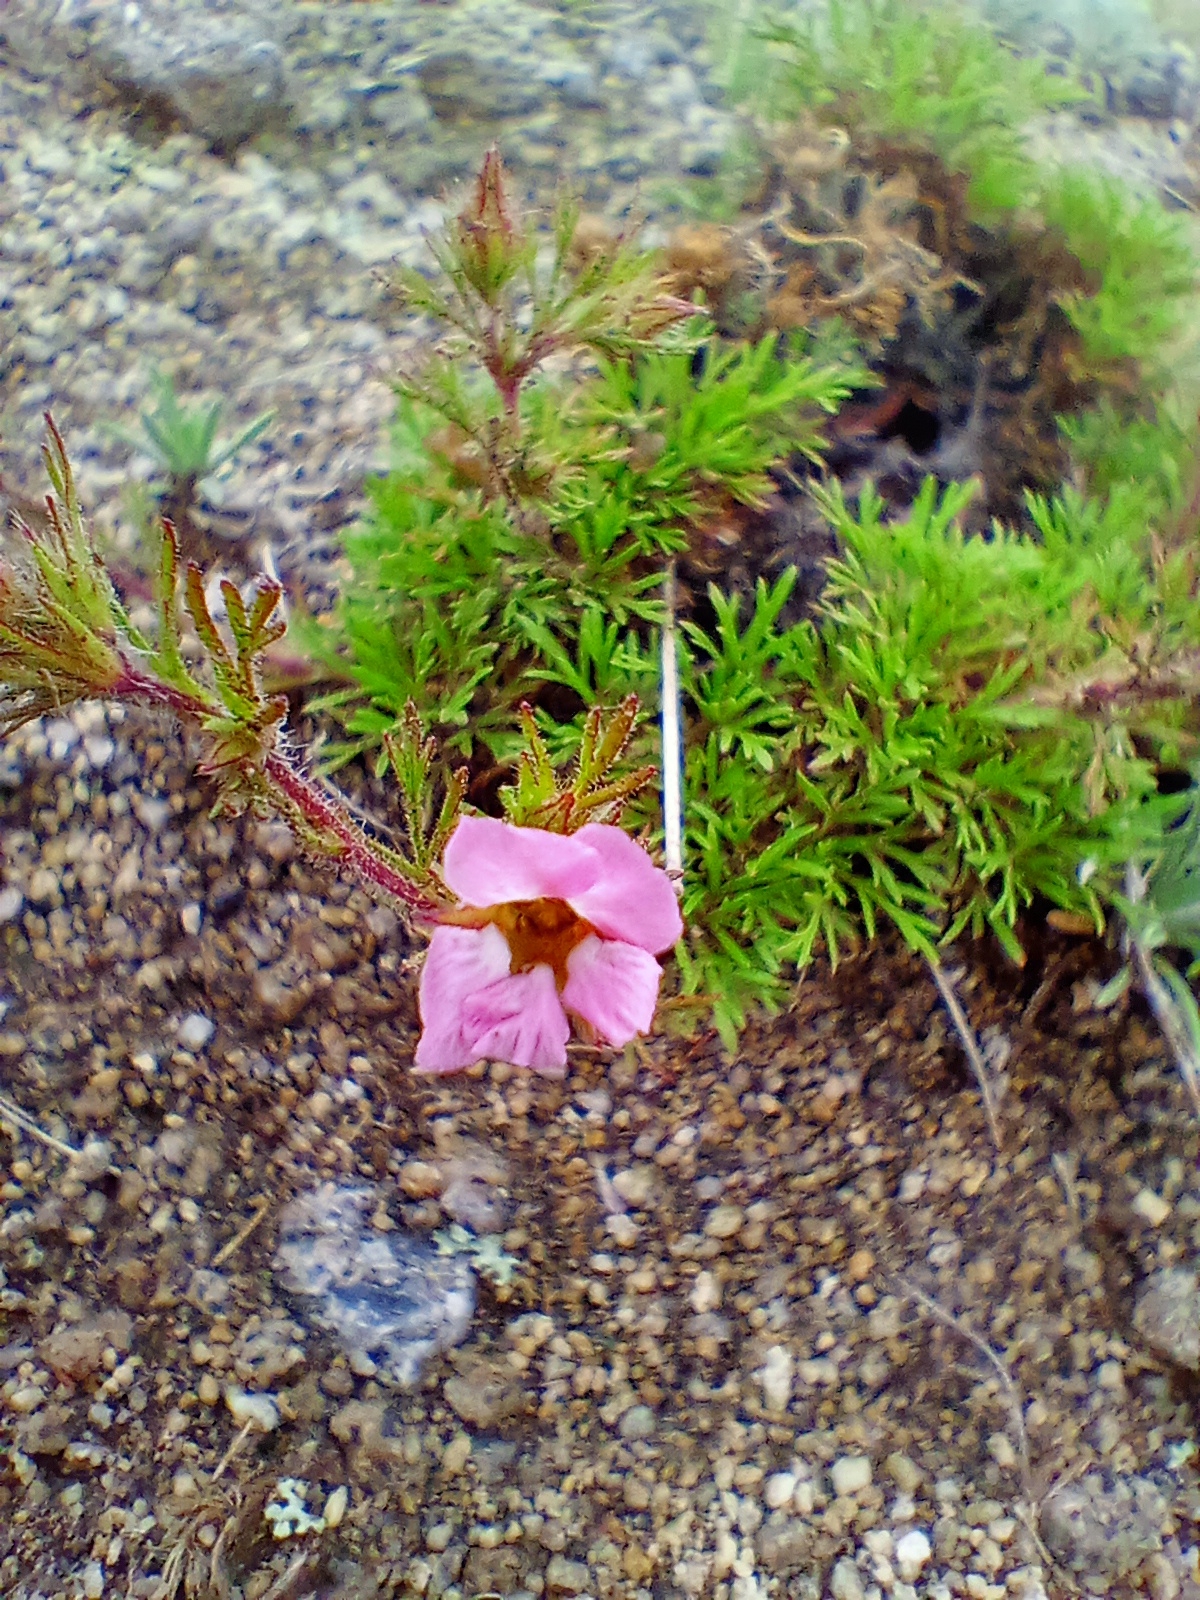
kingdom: Plantae
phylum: Tracheophyta
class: Magnoliopsida
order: Rosales
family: Rosaceae
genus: Chamaerhodos
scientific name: Chamaerhodos grandiflora
